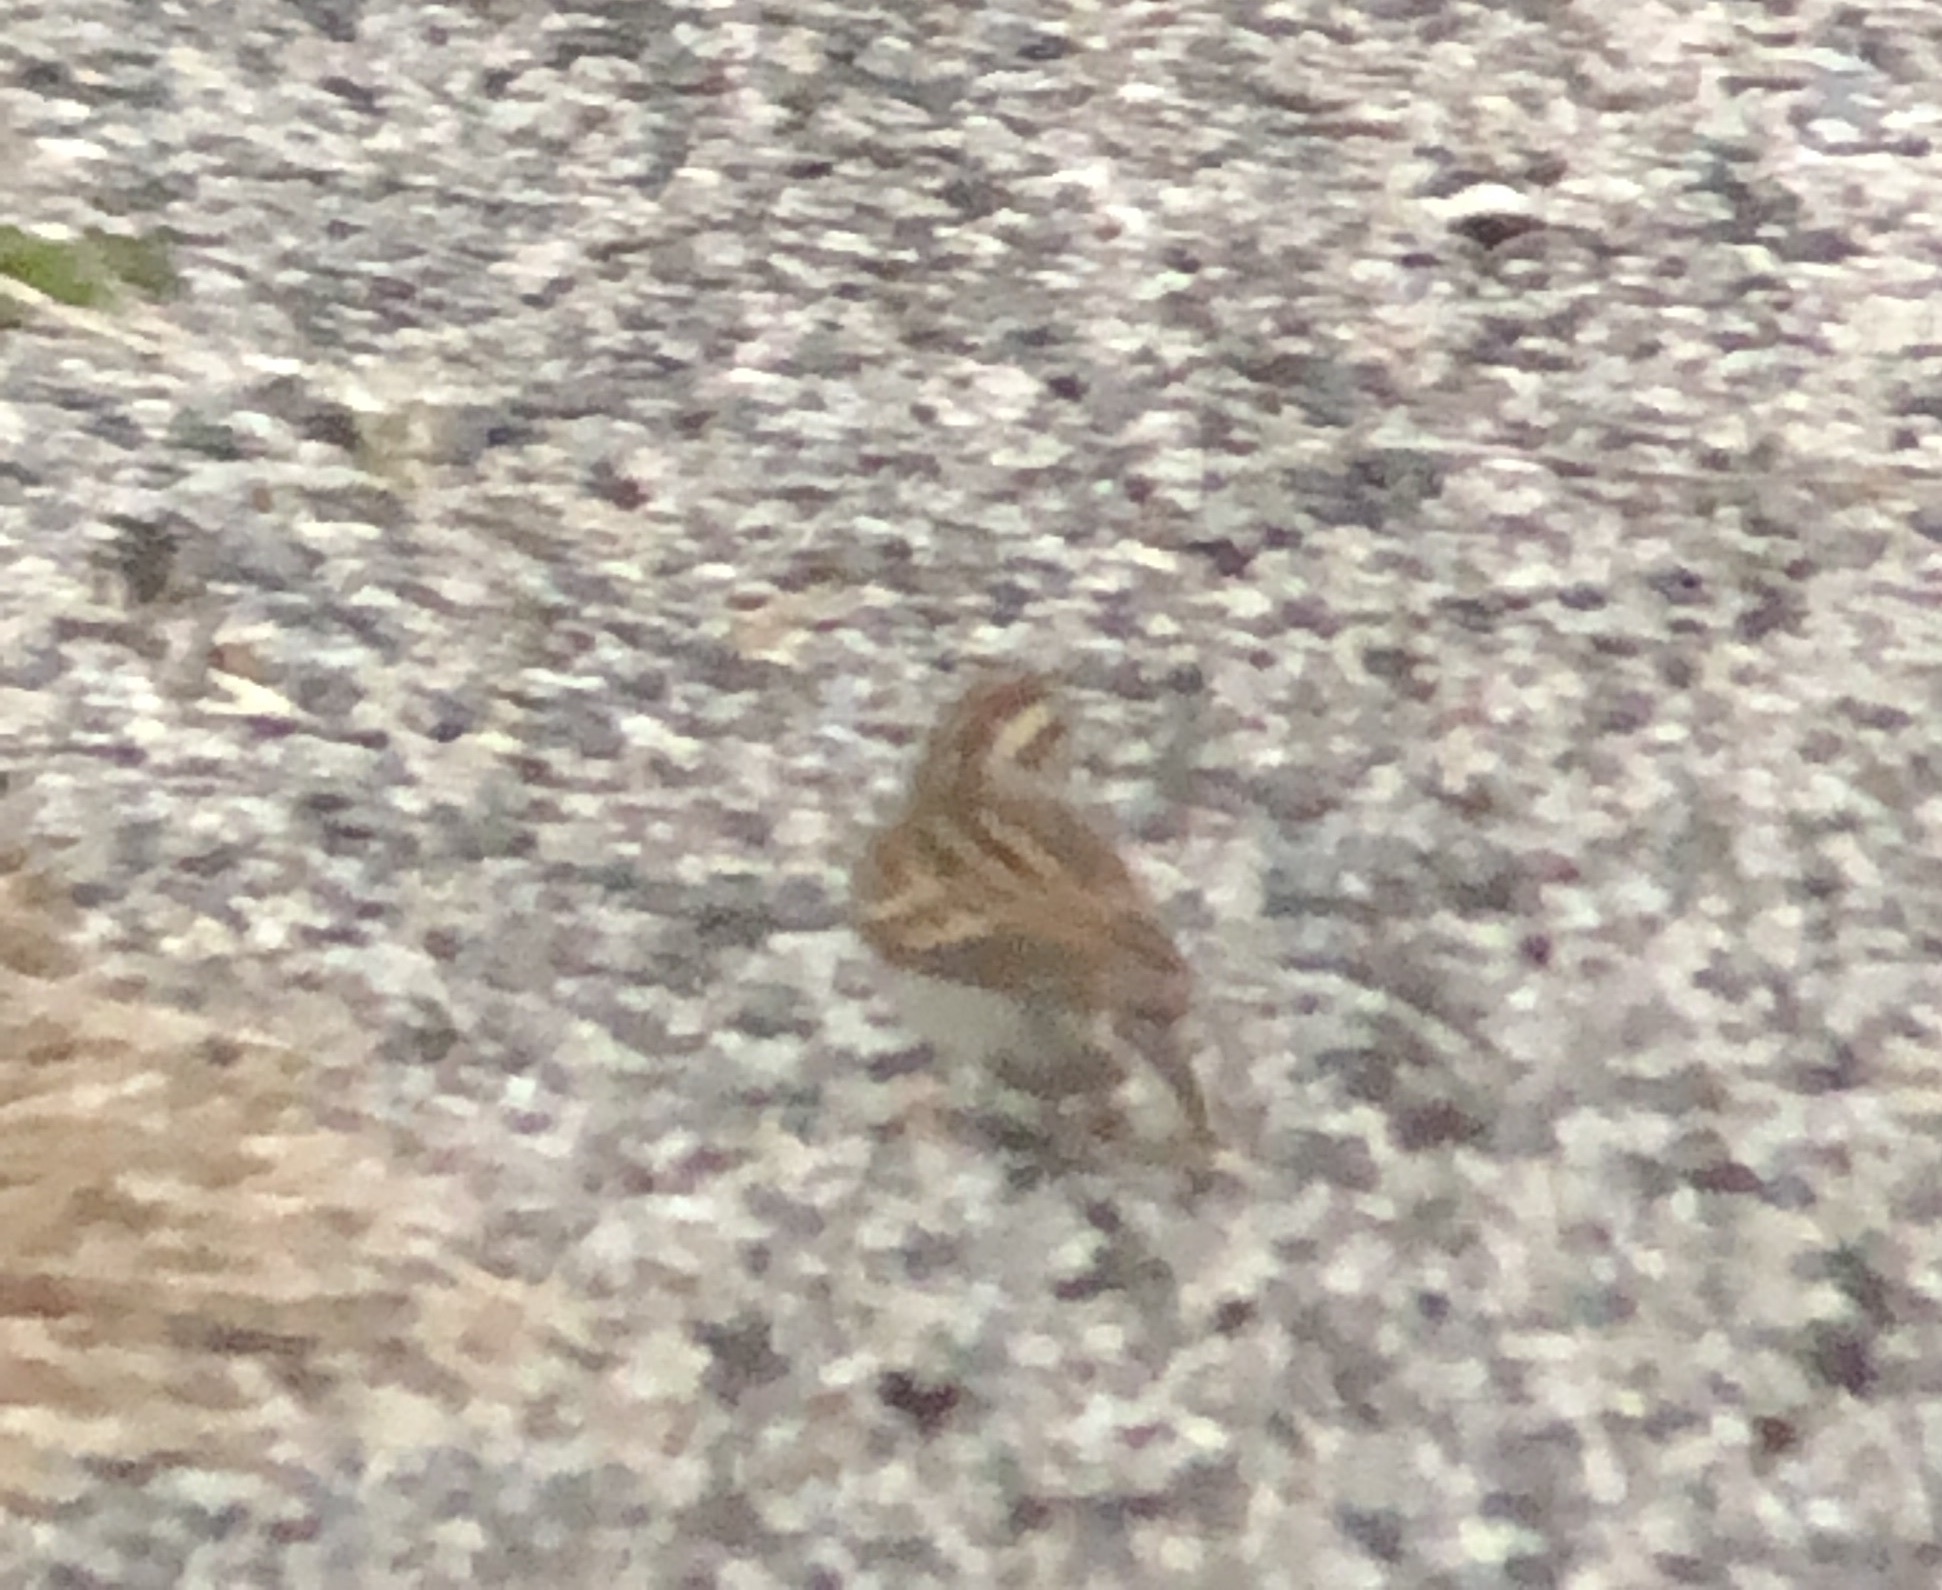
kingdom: Animalia
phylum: Chordata
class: Aves
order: Passeriformes
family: Passerellidae
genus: Spizella
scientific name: Spizella passerina
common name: Chipping sparrow
